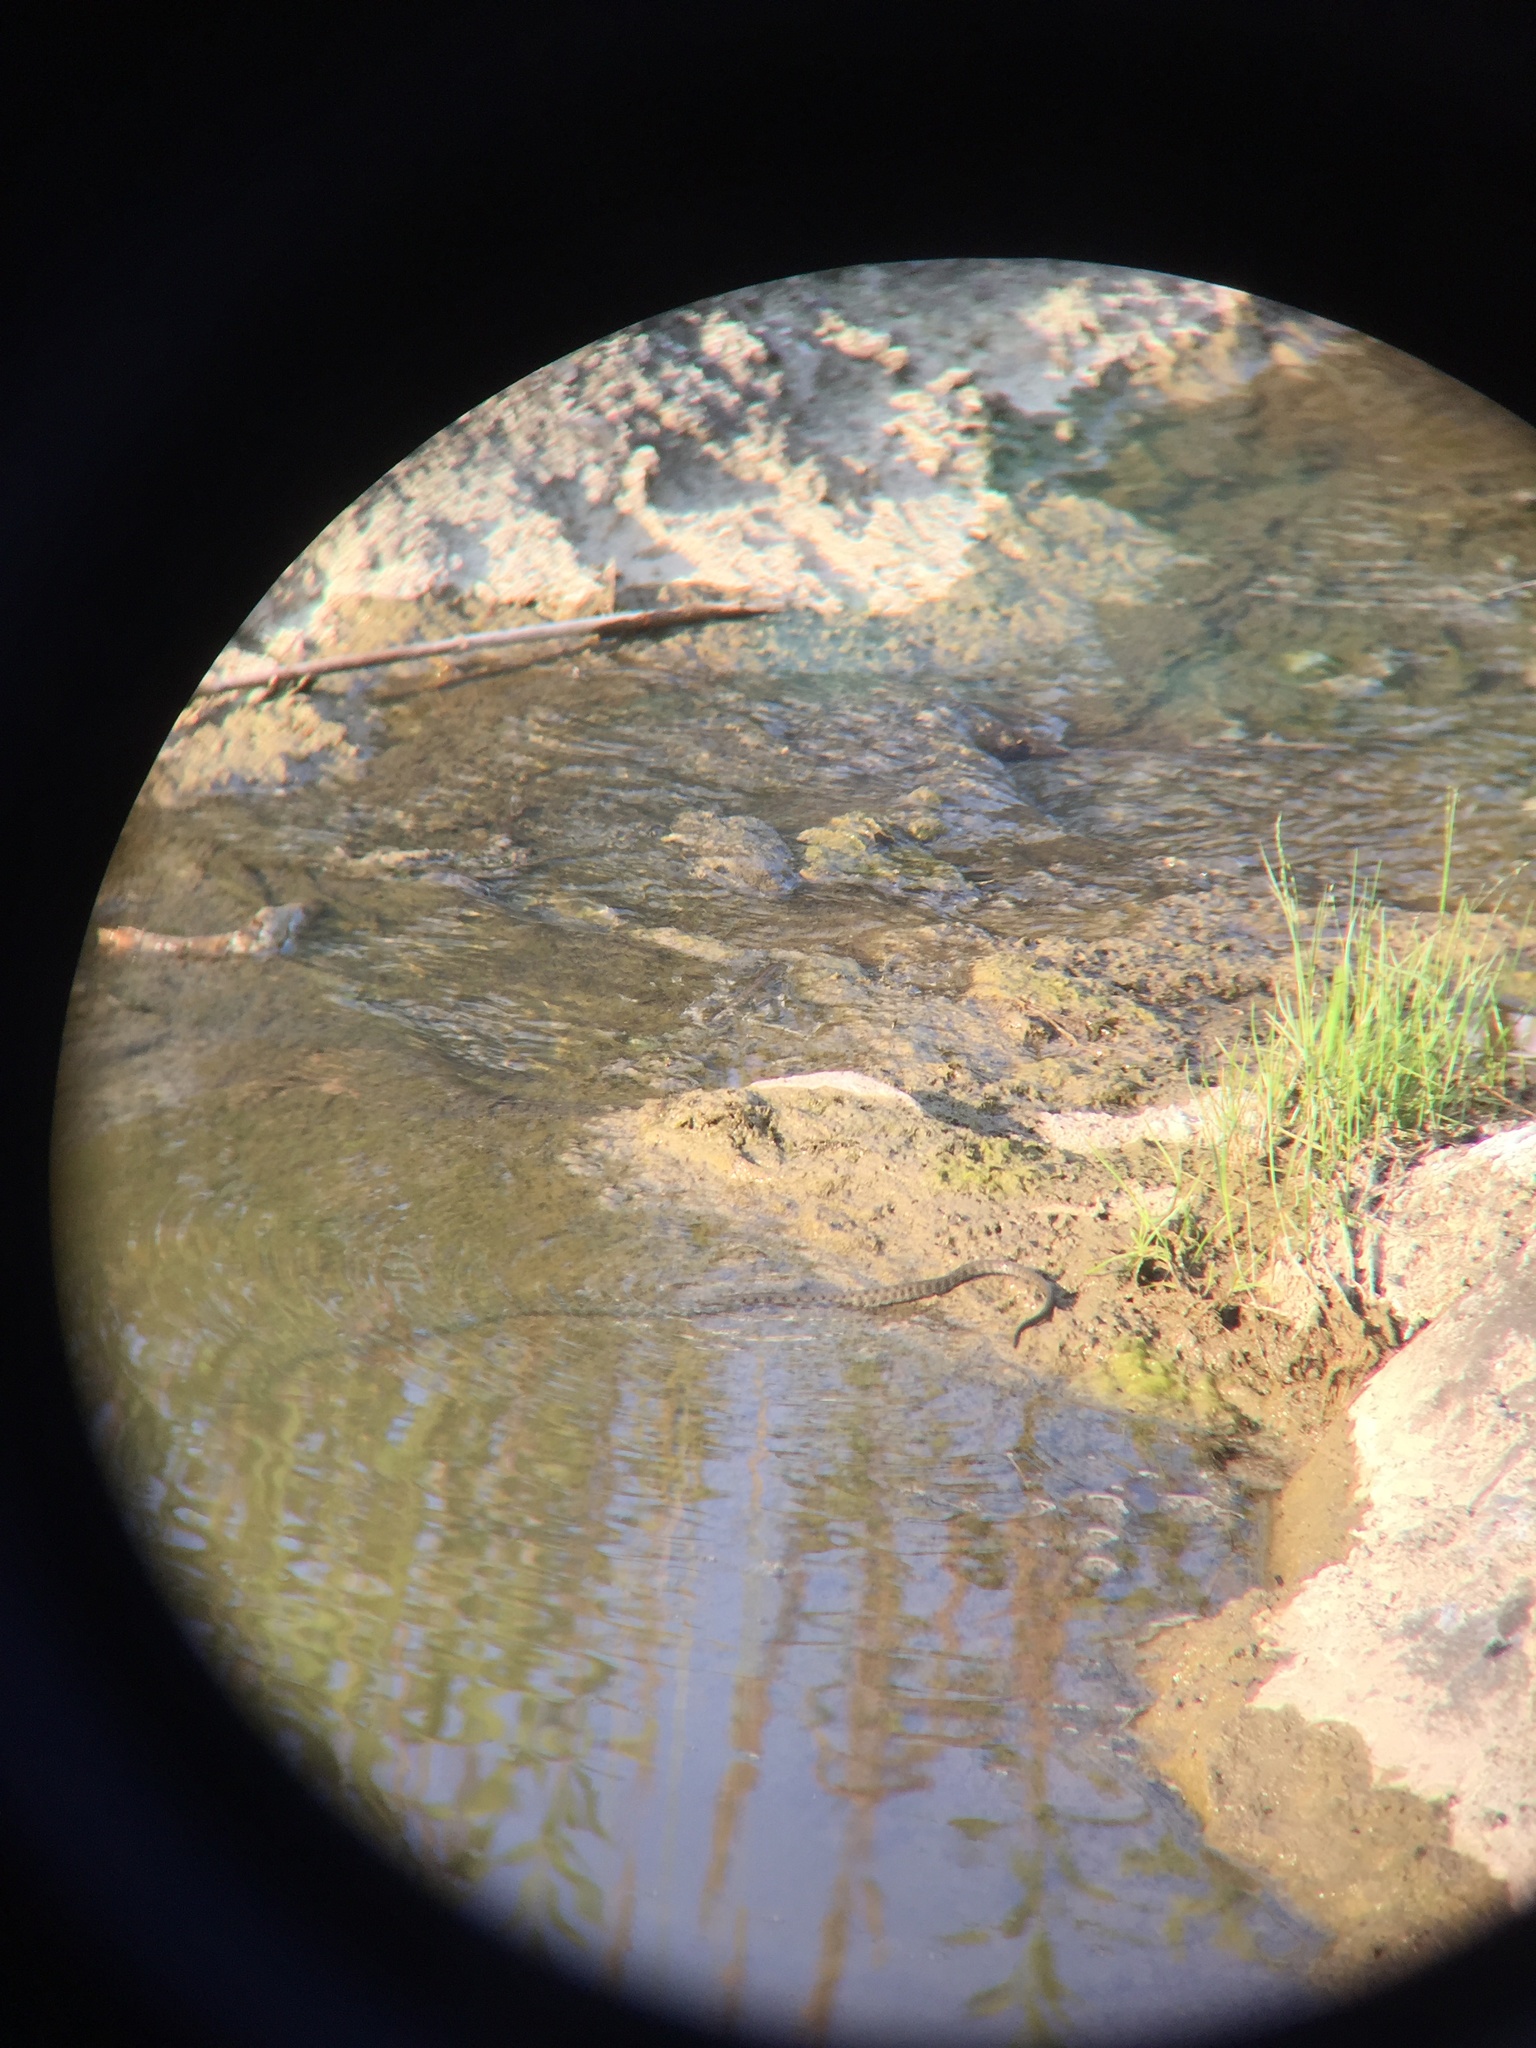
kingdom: Animalia
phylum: Chordata
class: Squamata
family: Colubridae
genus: Natrix
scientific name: Natrix tessellata
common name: Dice snake
